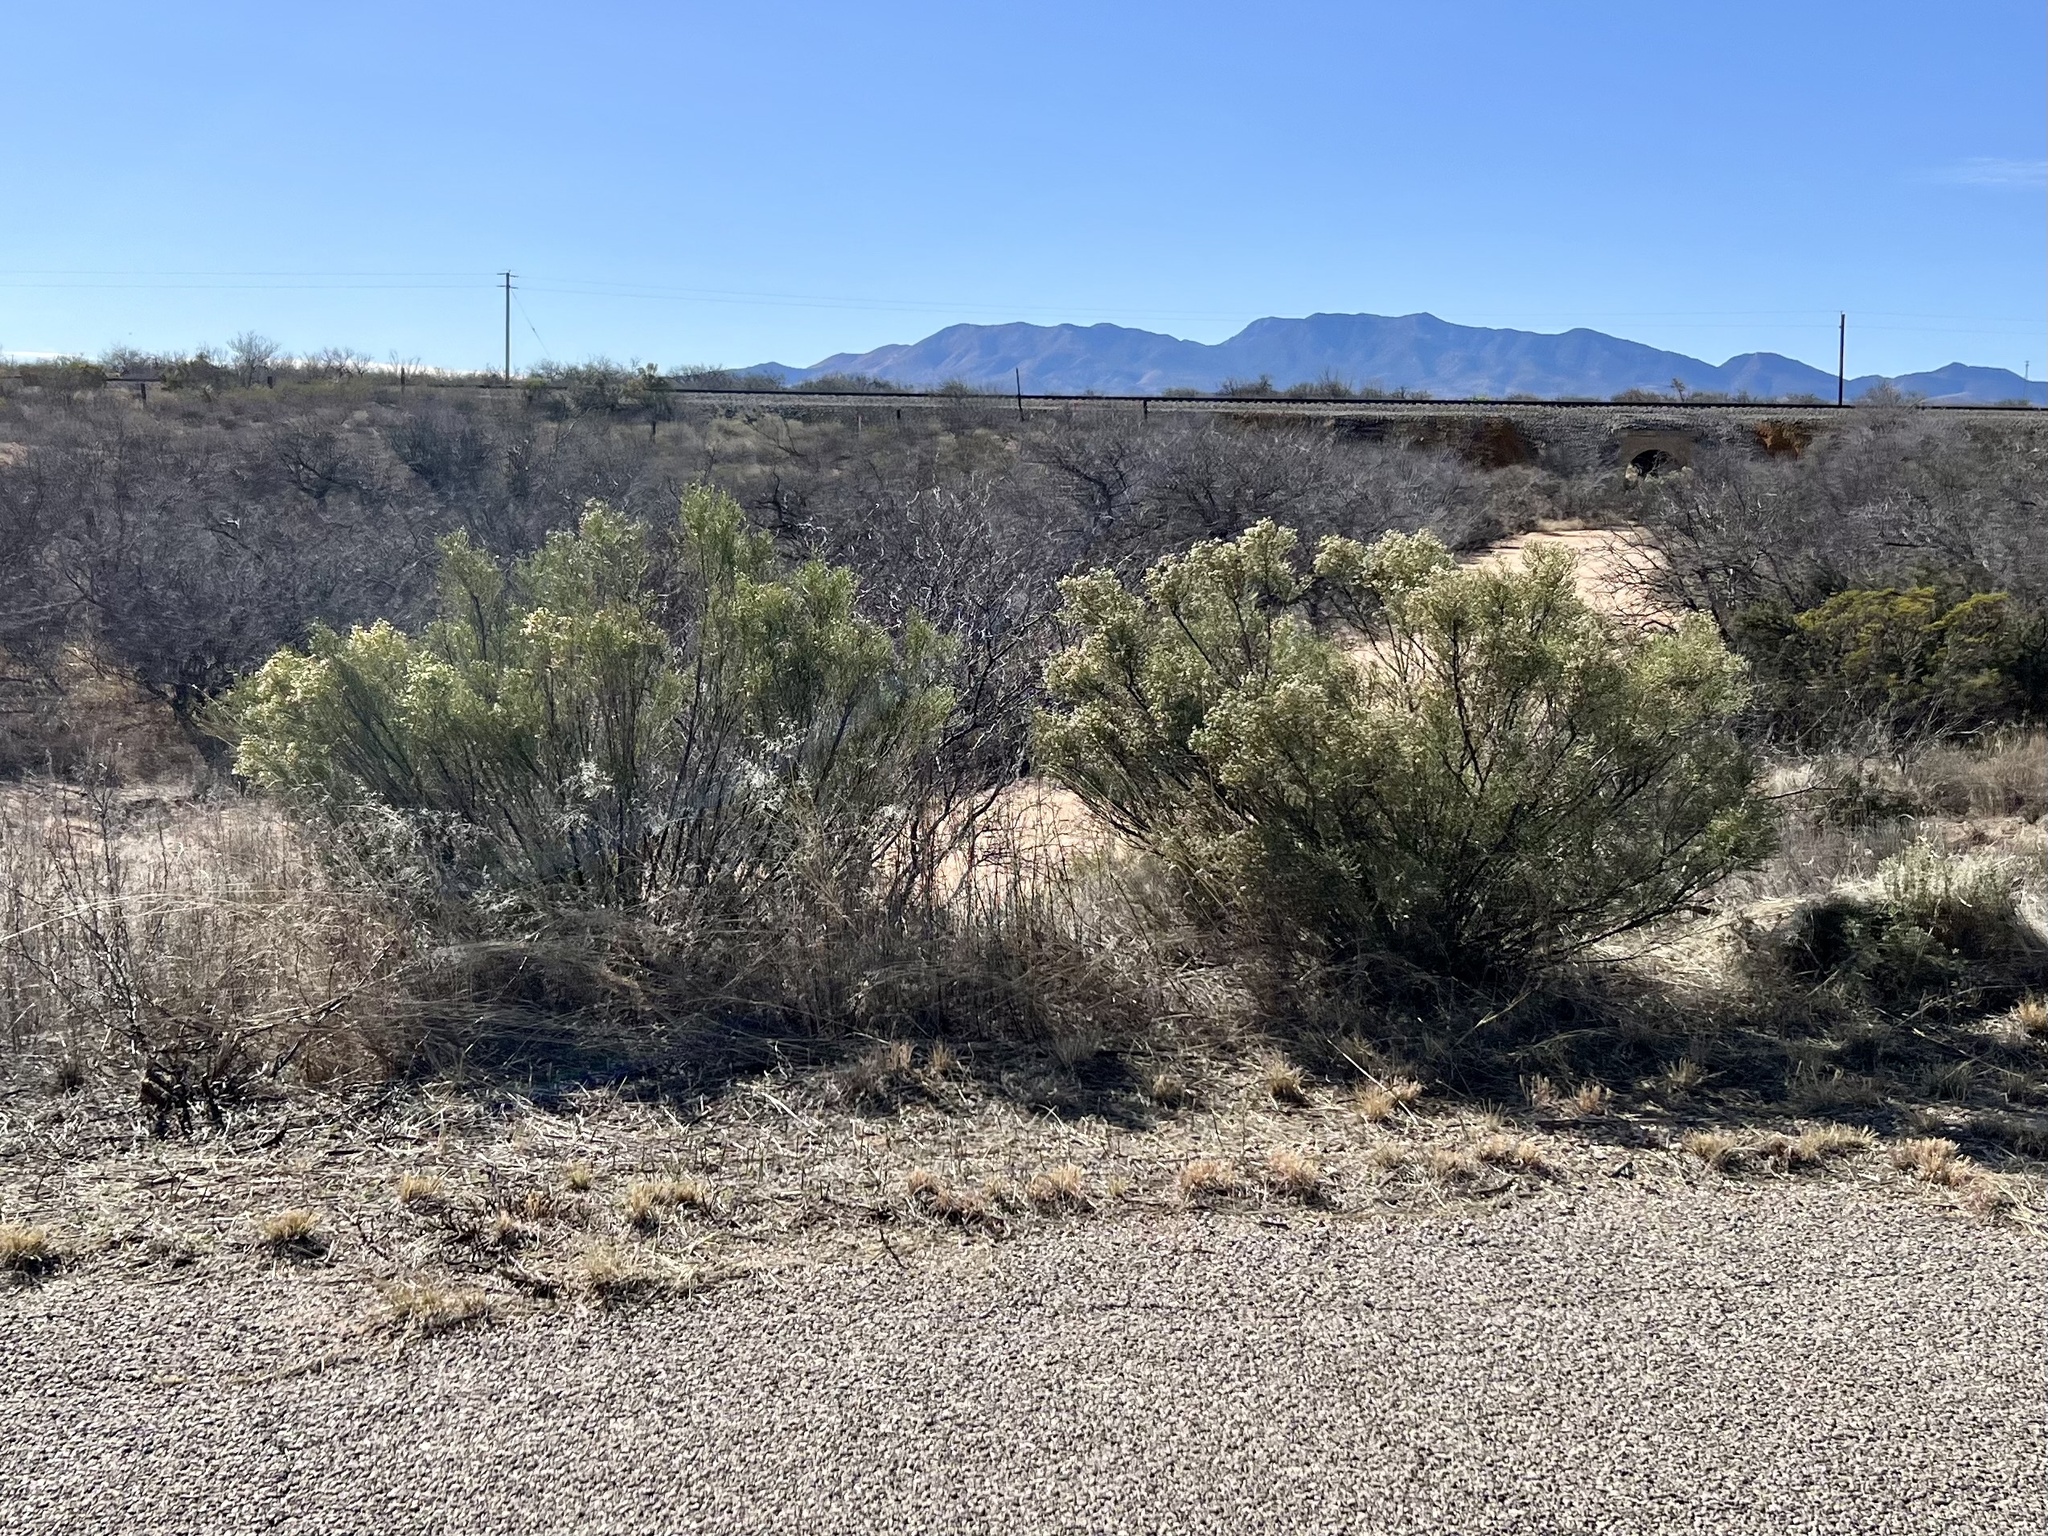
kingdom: Plantae
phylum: Tracheophyta
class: Magnoliopsida
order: Asterales
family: Asteraceae
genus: Baccharis
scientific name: Baccharis sarothroides
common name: Desert-broom
